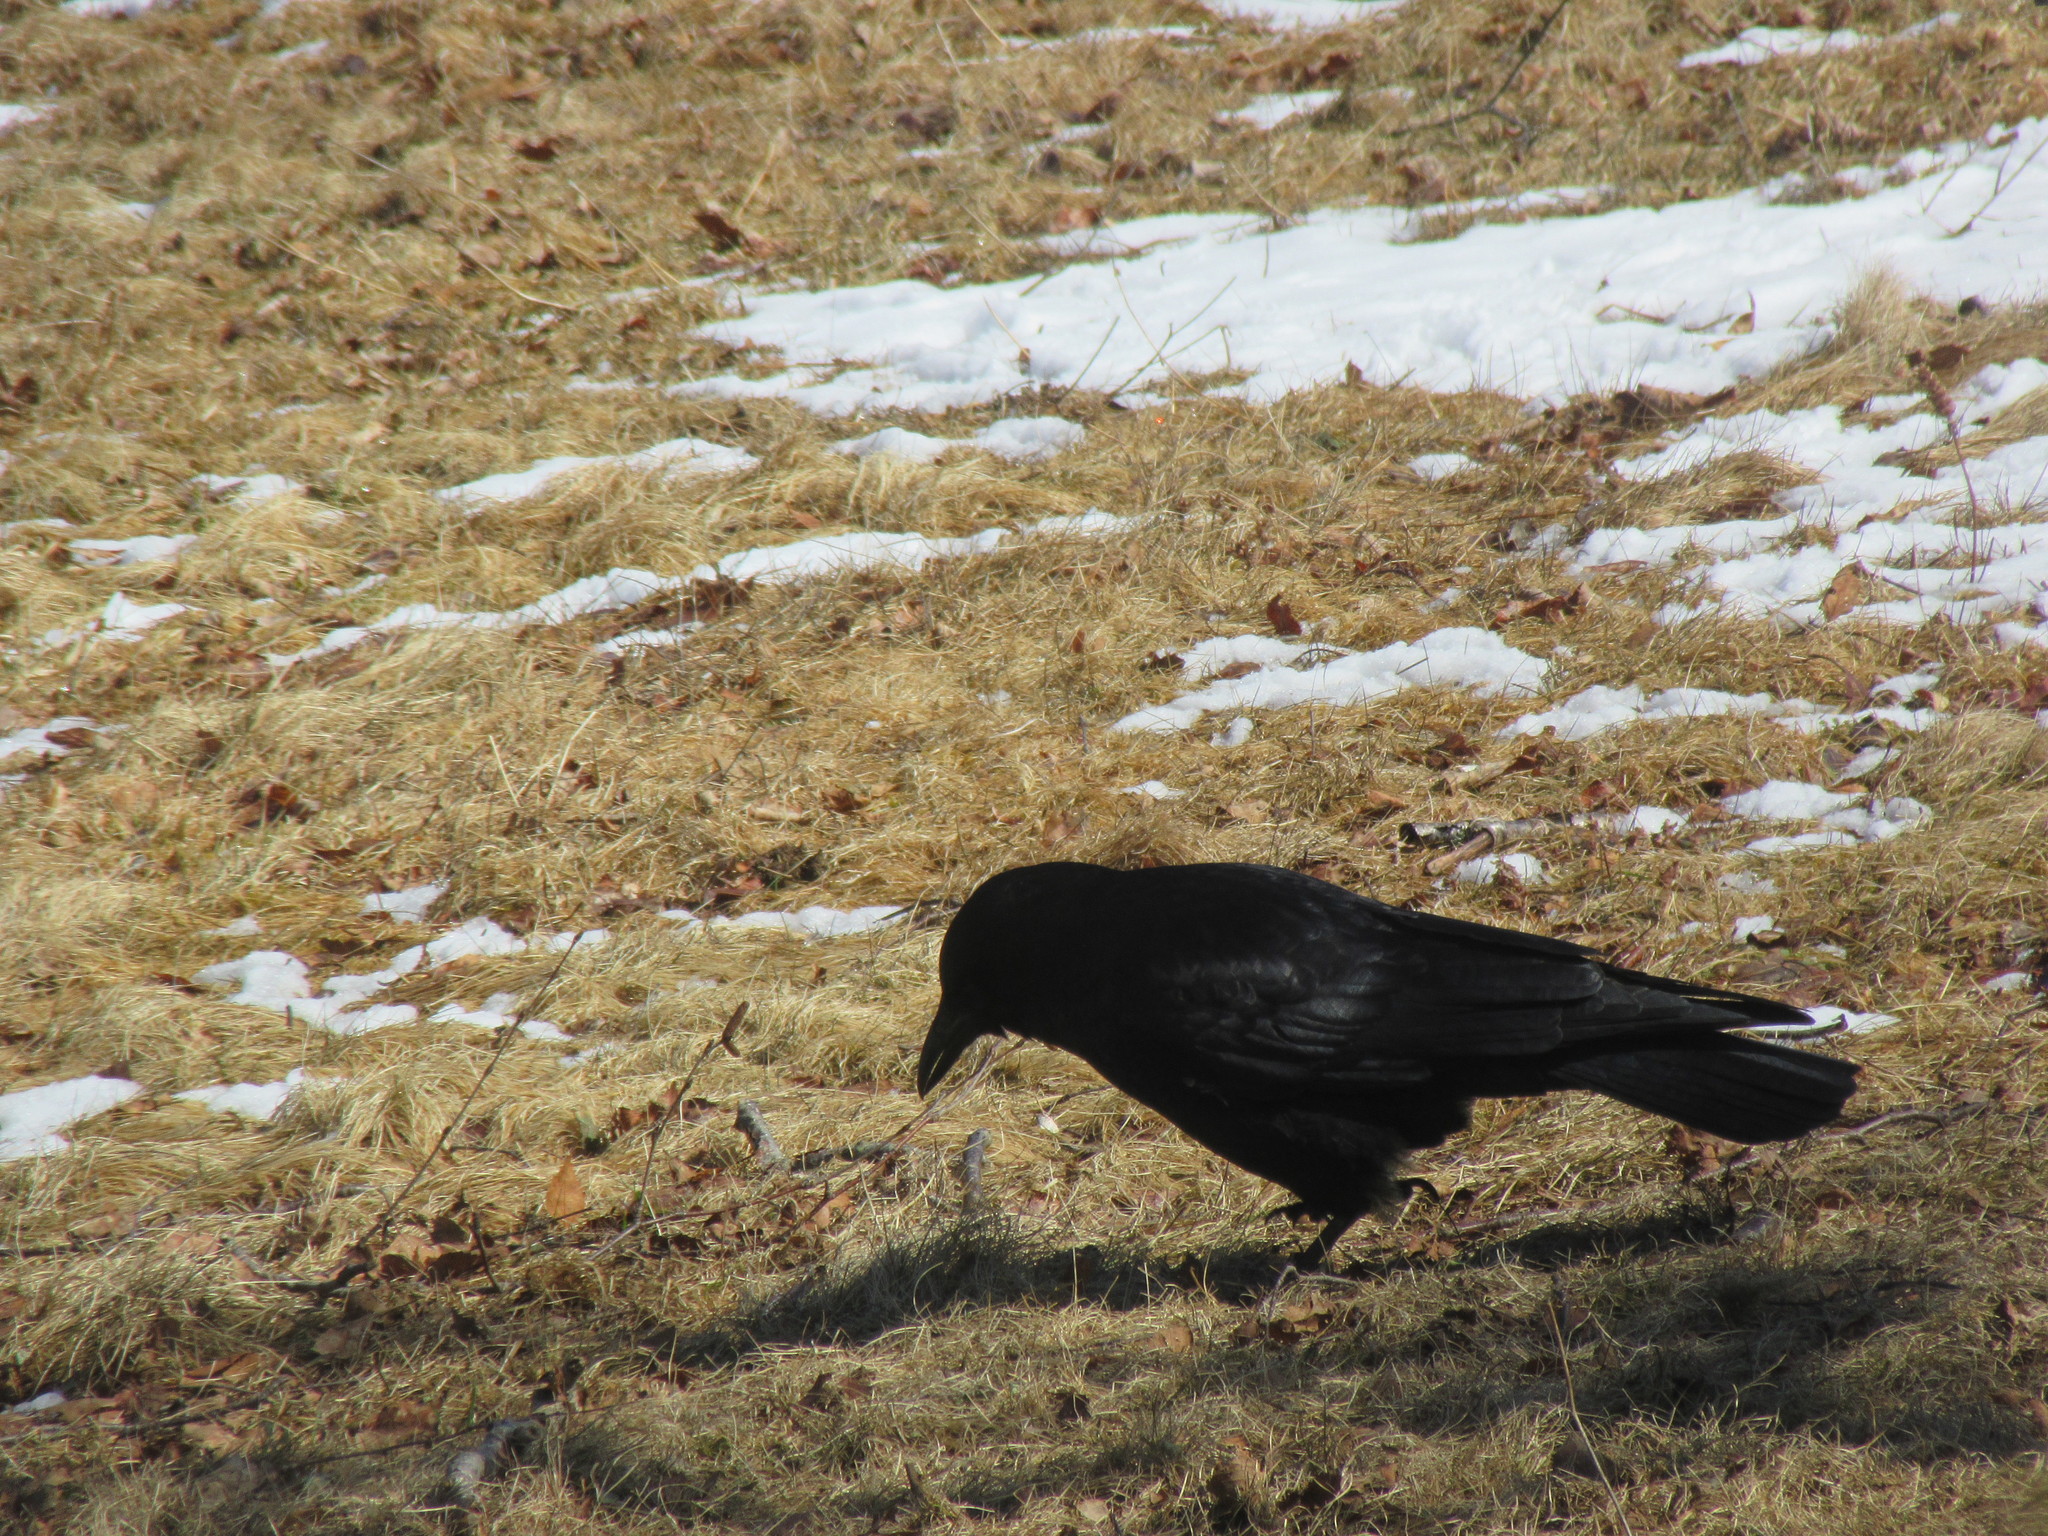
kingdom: Animalia
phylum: Chordata
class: Aves
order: Passeriformes
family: Corvidae
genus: Corvus
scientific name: Corvus brachyrhynchos
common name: American crow
